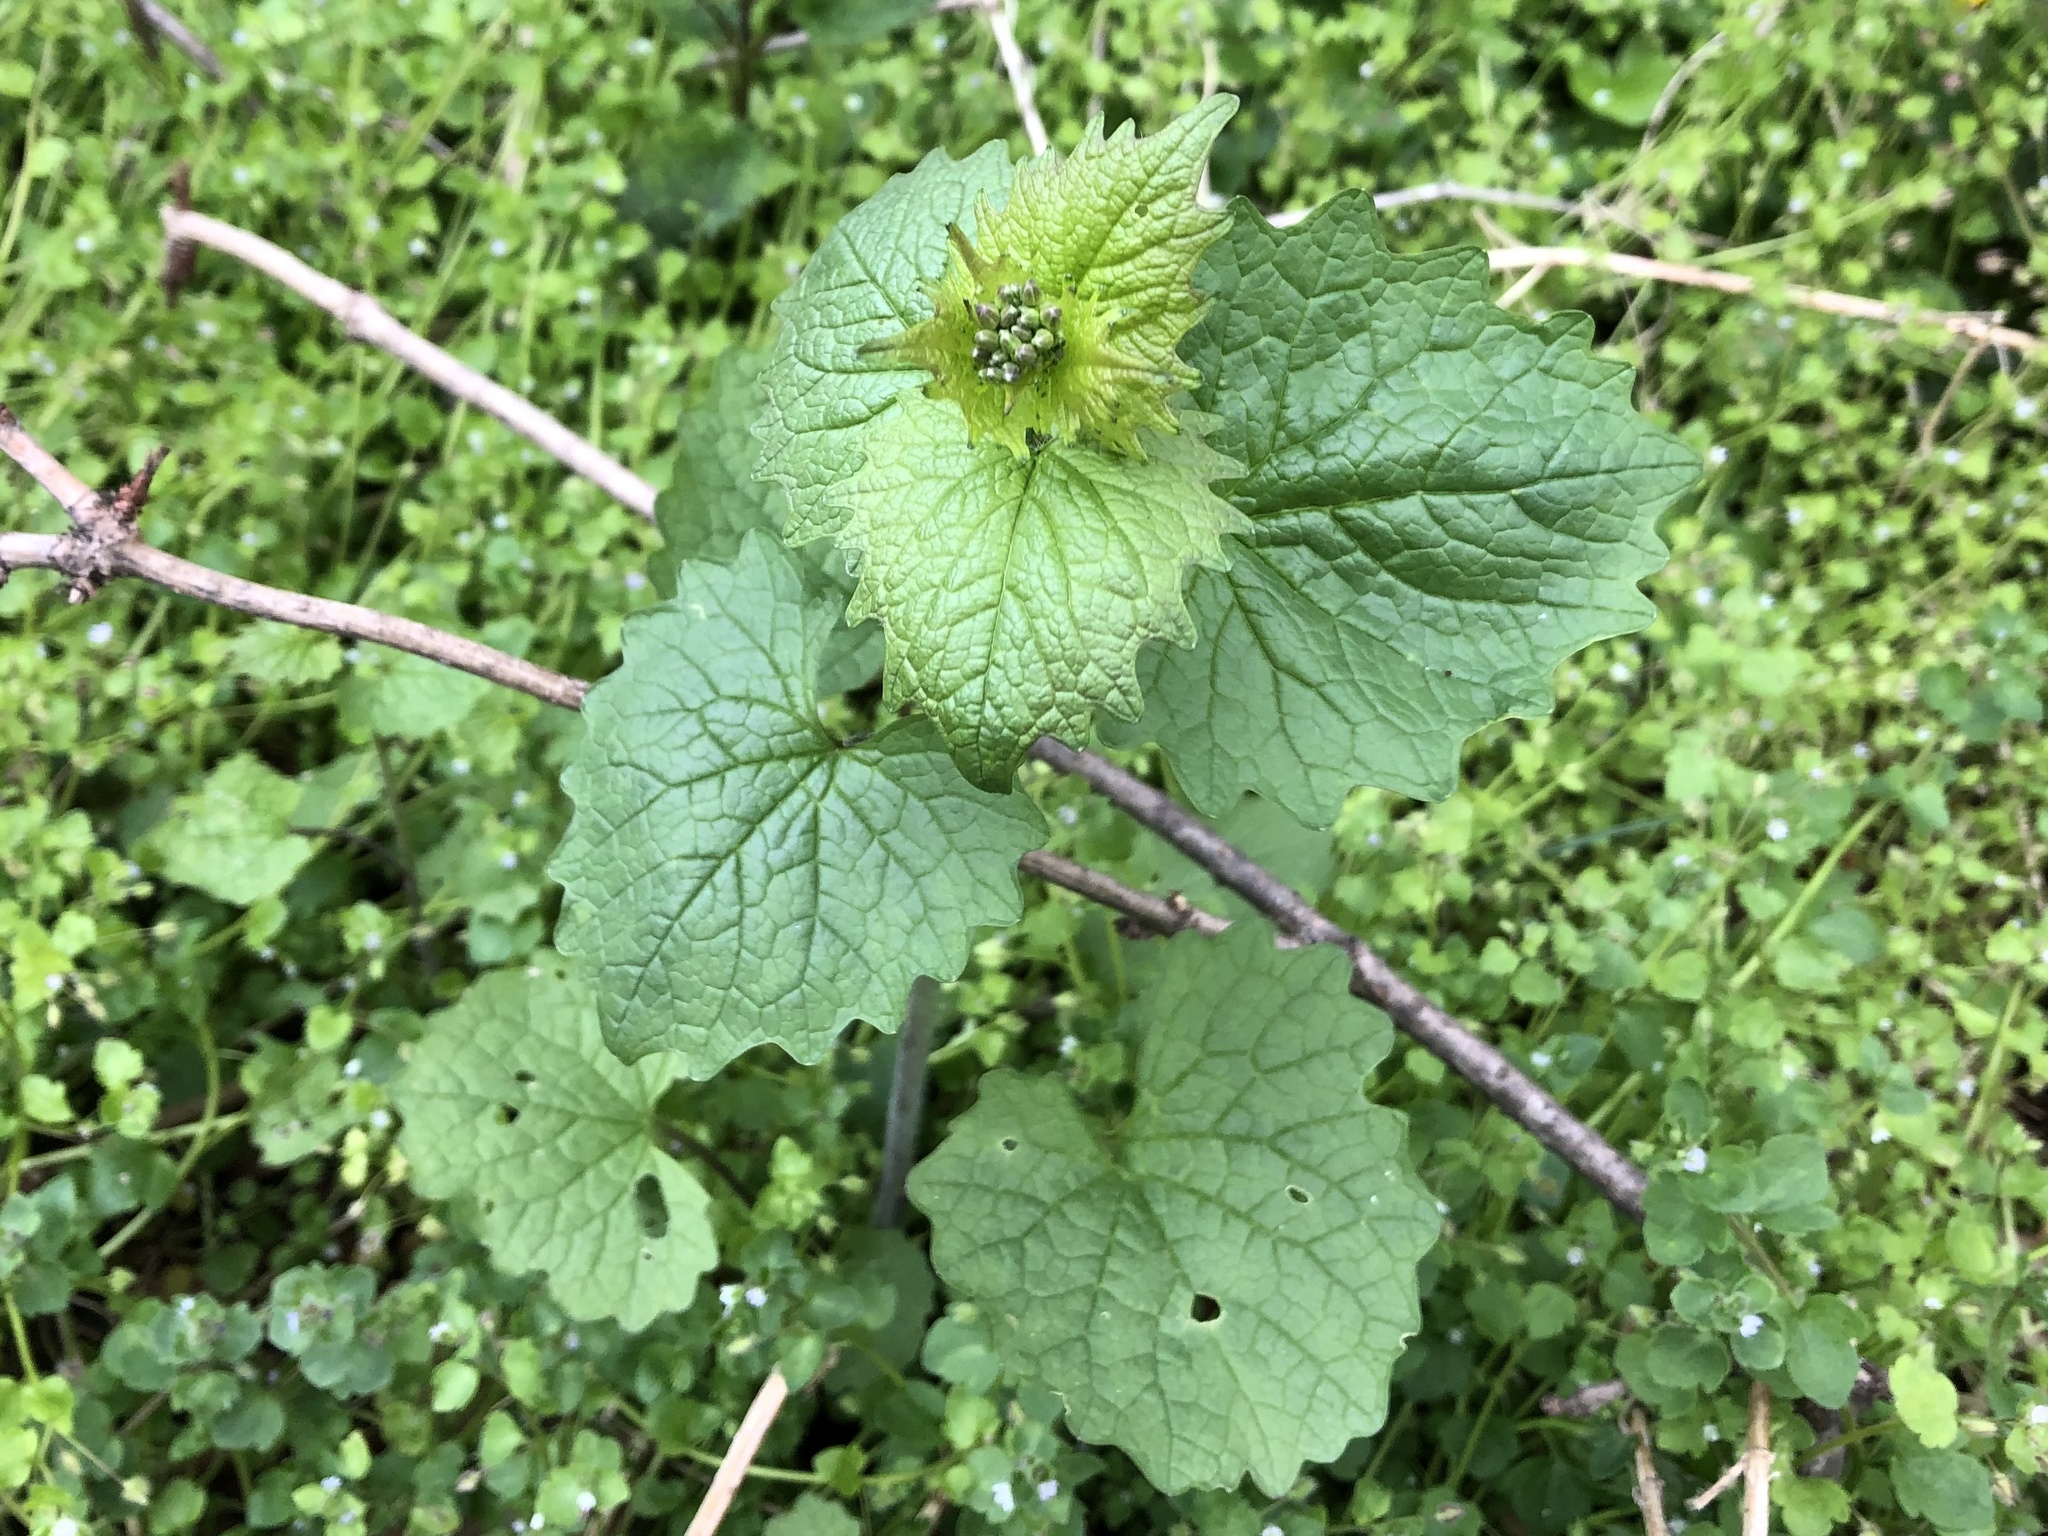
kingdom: Plantae
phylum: Tracheophyta
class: Magnoliopsida
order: Brassicales
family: Brassicaceae
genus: Alliaria
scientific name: Alliaria petiolata
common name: Garlic mustard
